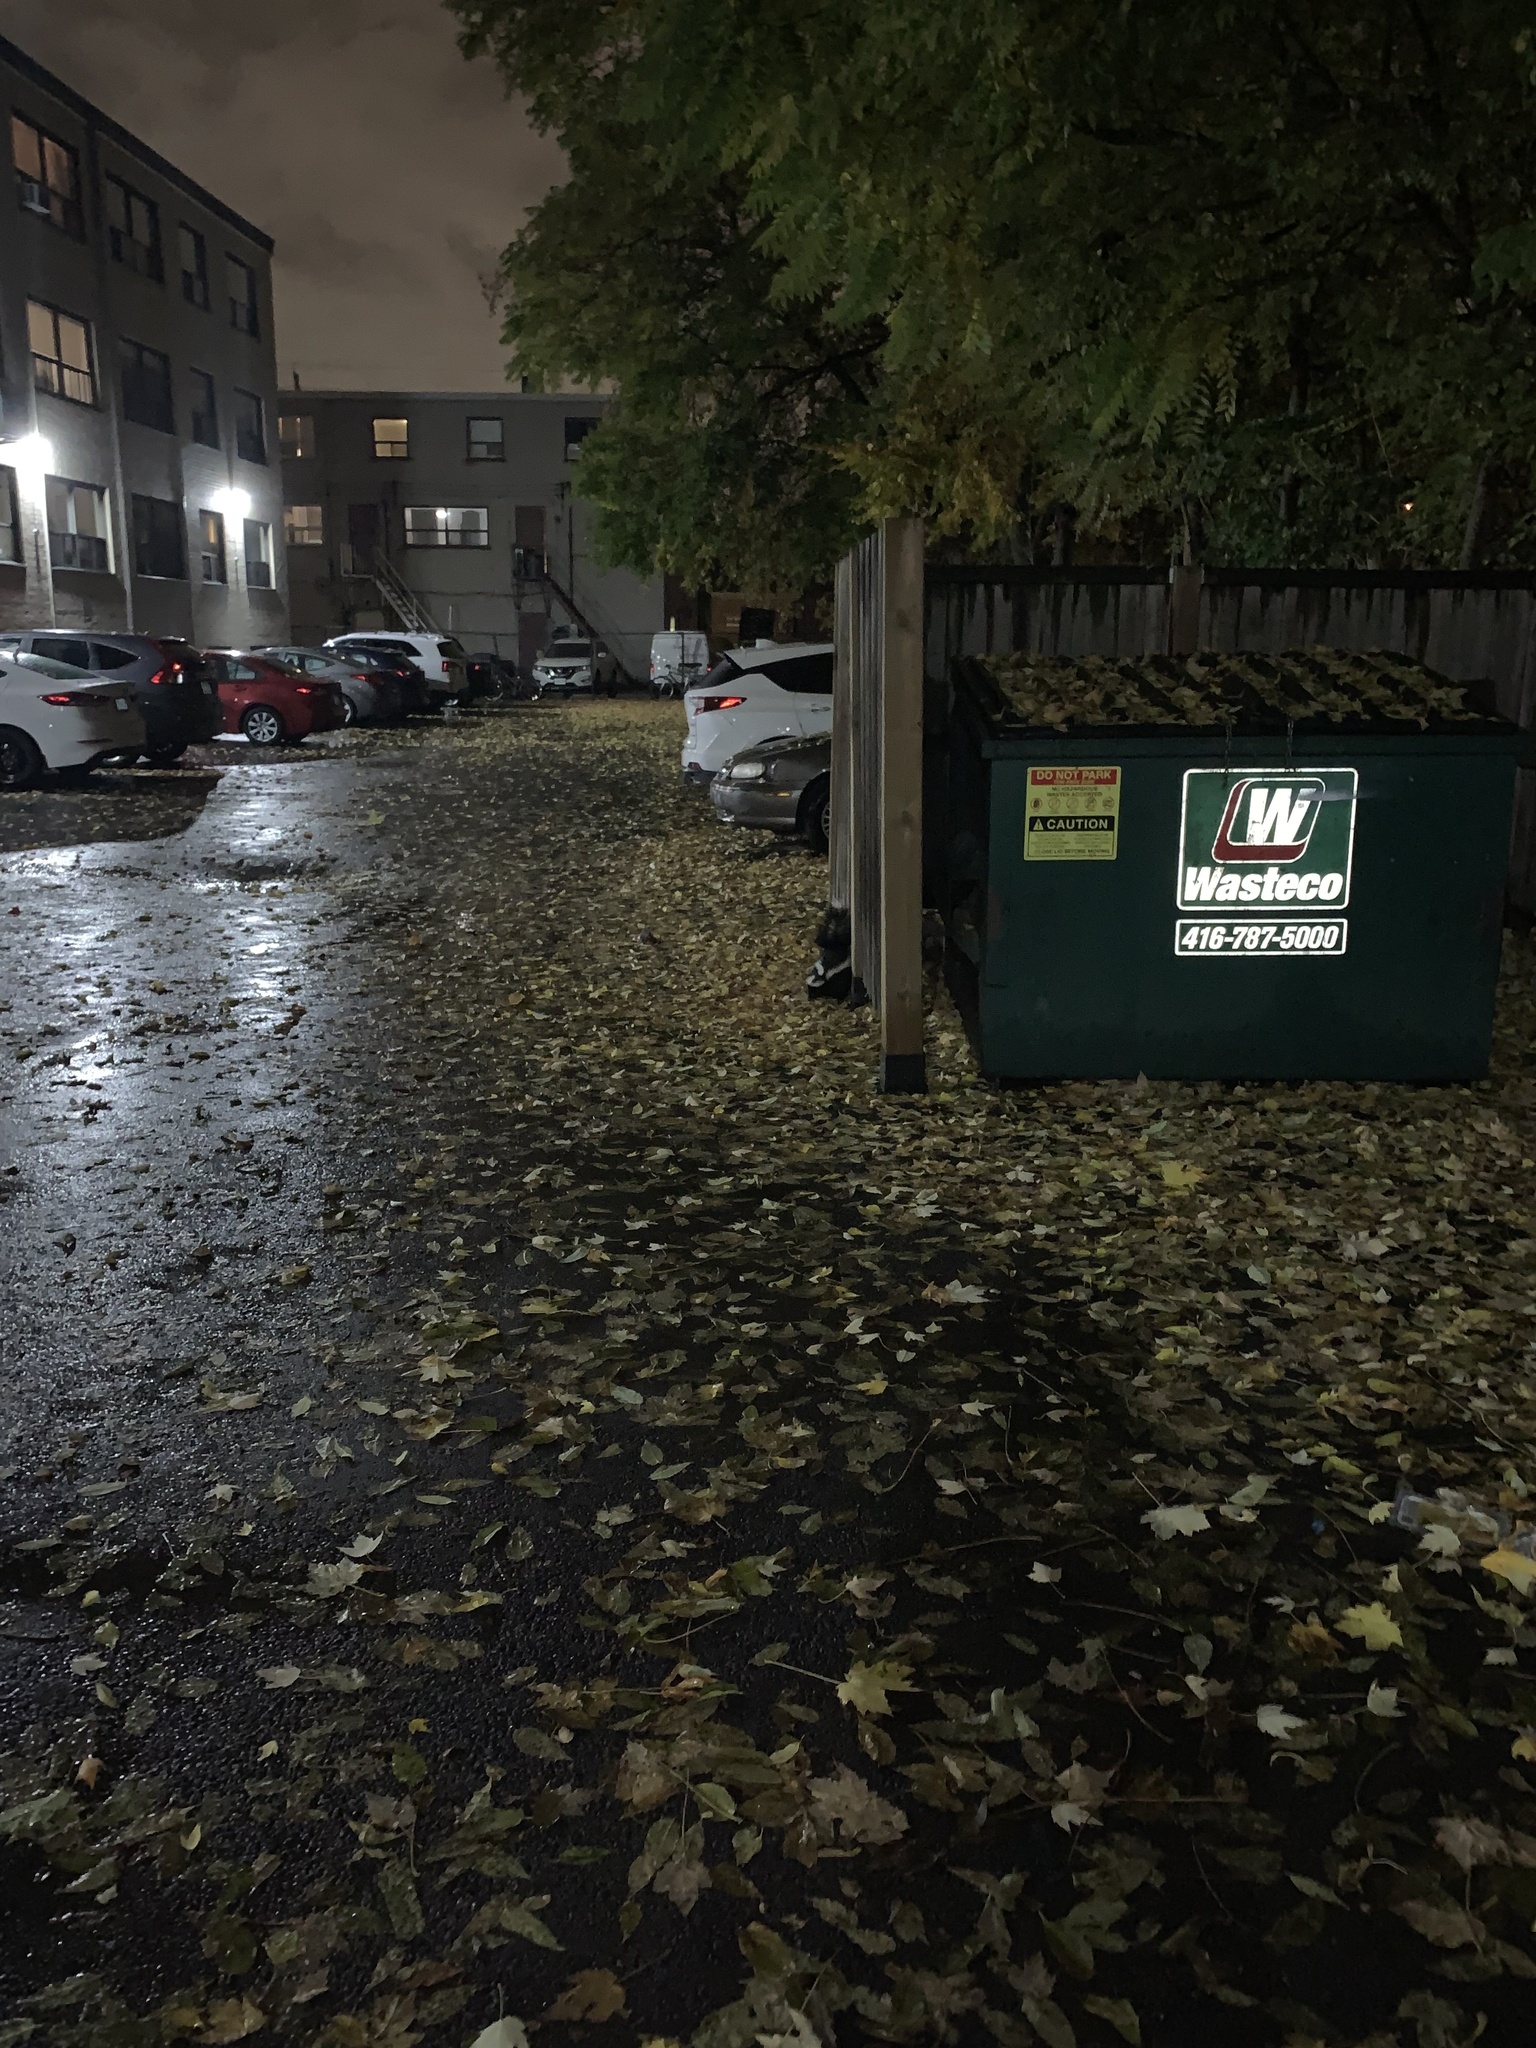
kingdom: Animalia
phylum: Chordata
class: Mammalia
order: Carnivora
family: Mephitidae
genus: Mephitis
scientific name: Mephitis mephitis
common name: Striped skunk
